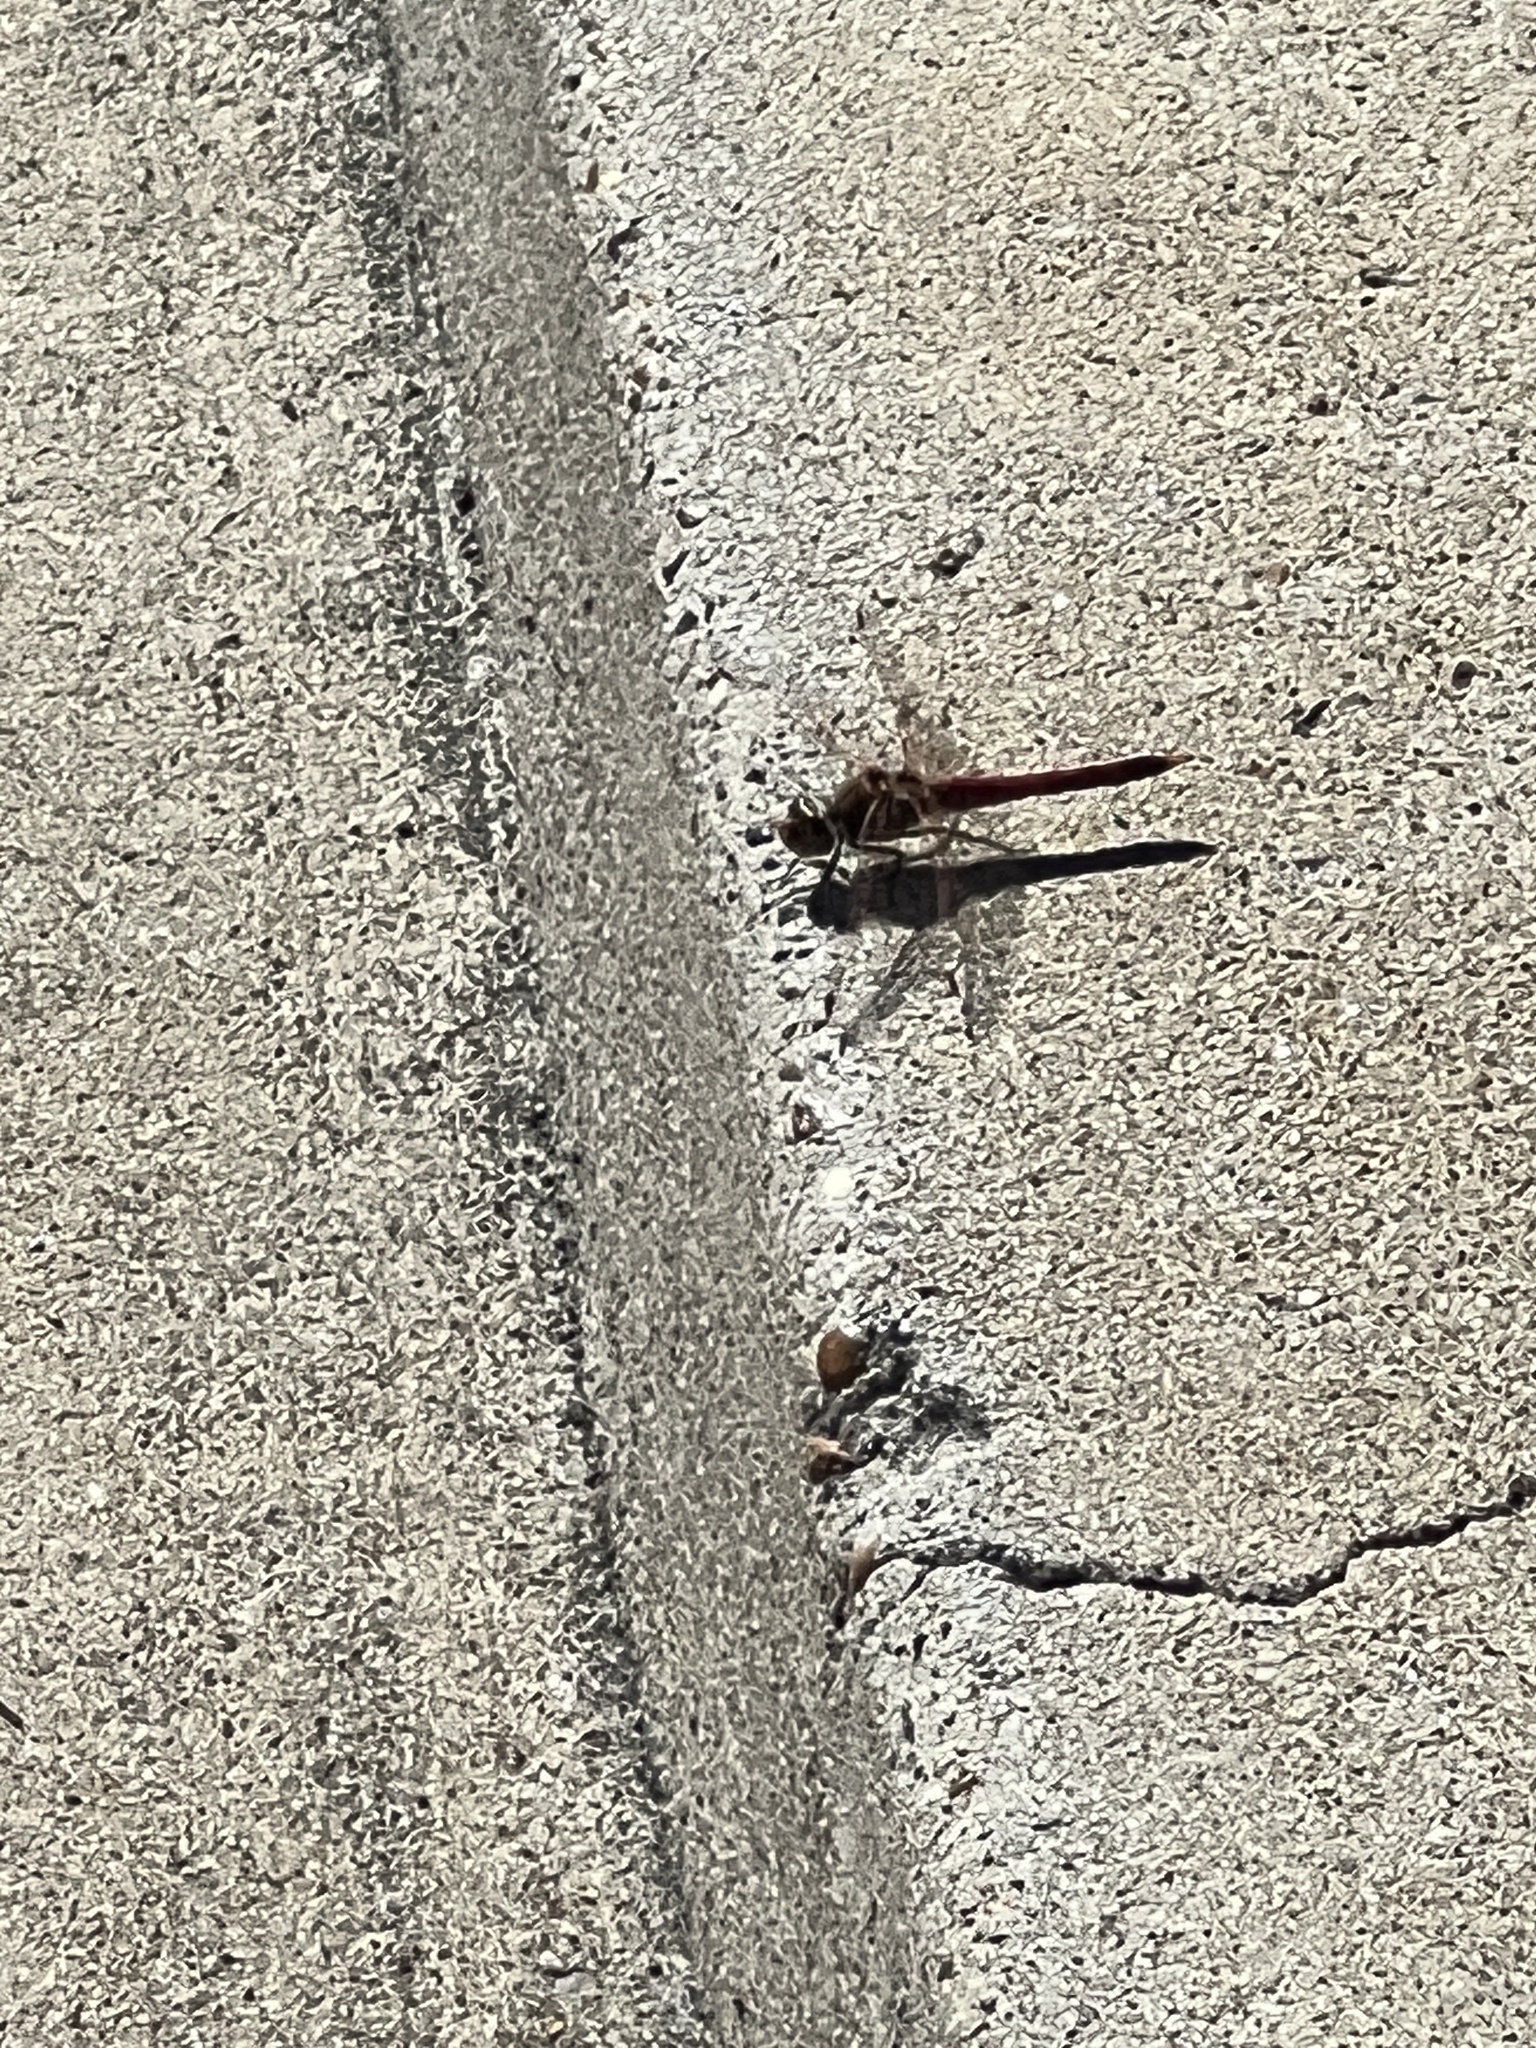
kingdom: Animalia
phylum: Arthropoda
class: Insecta
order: Odonata
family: Libellulidae
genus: Sympetrum
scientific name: Sympetrum corruptum
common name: Variegated meadowhawk
